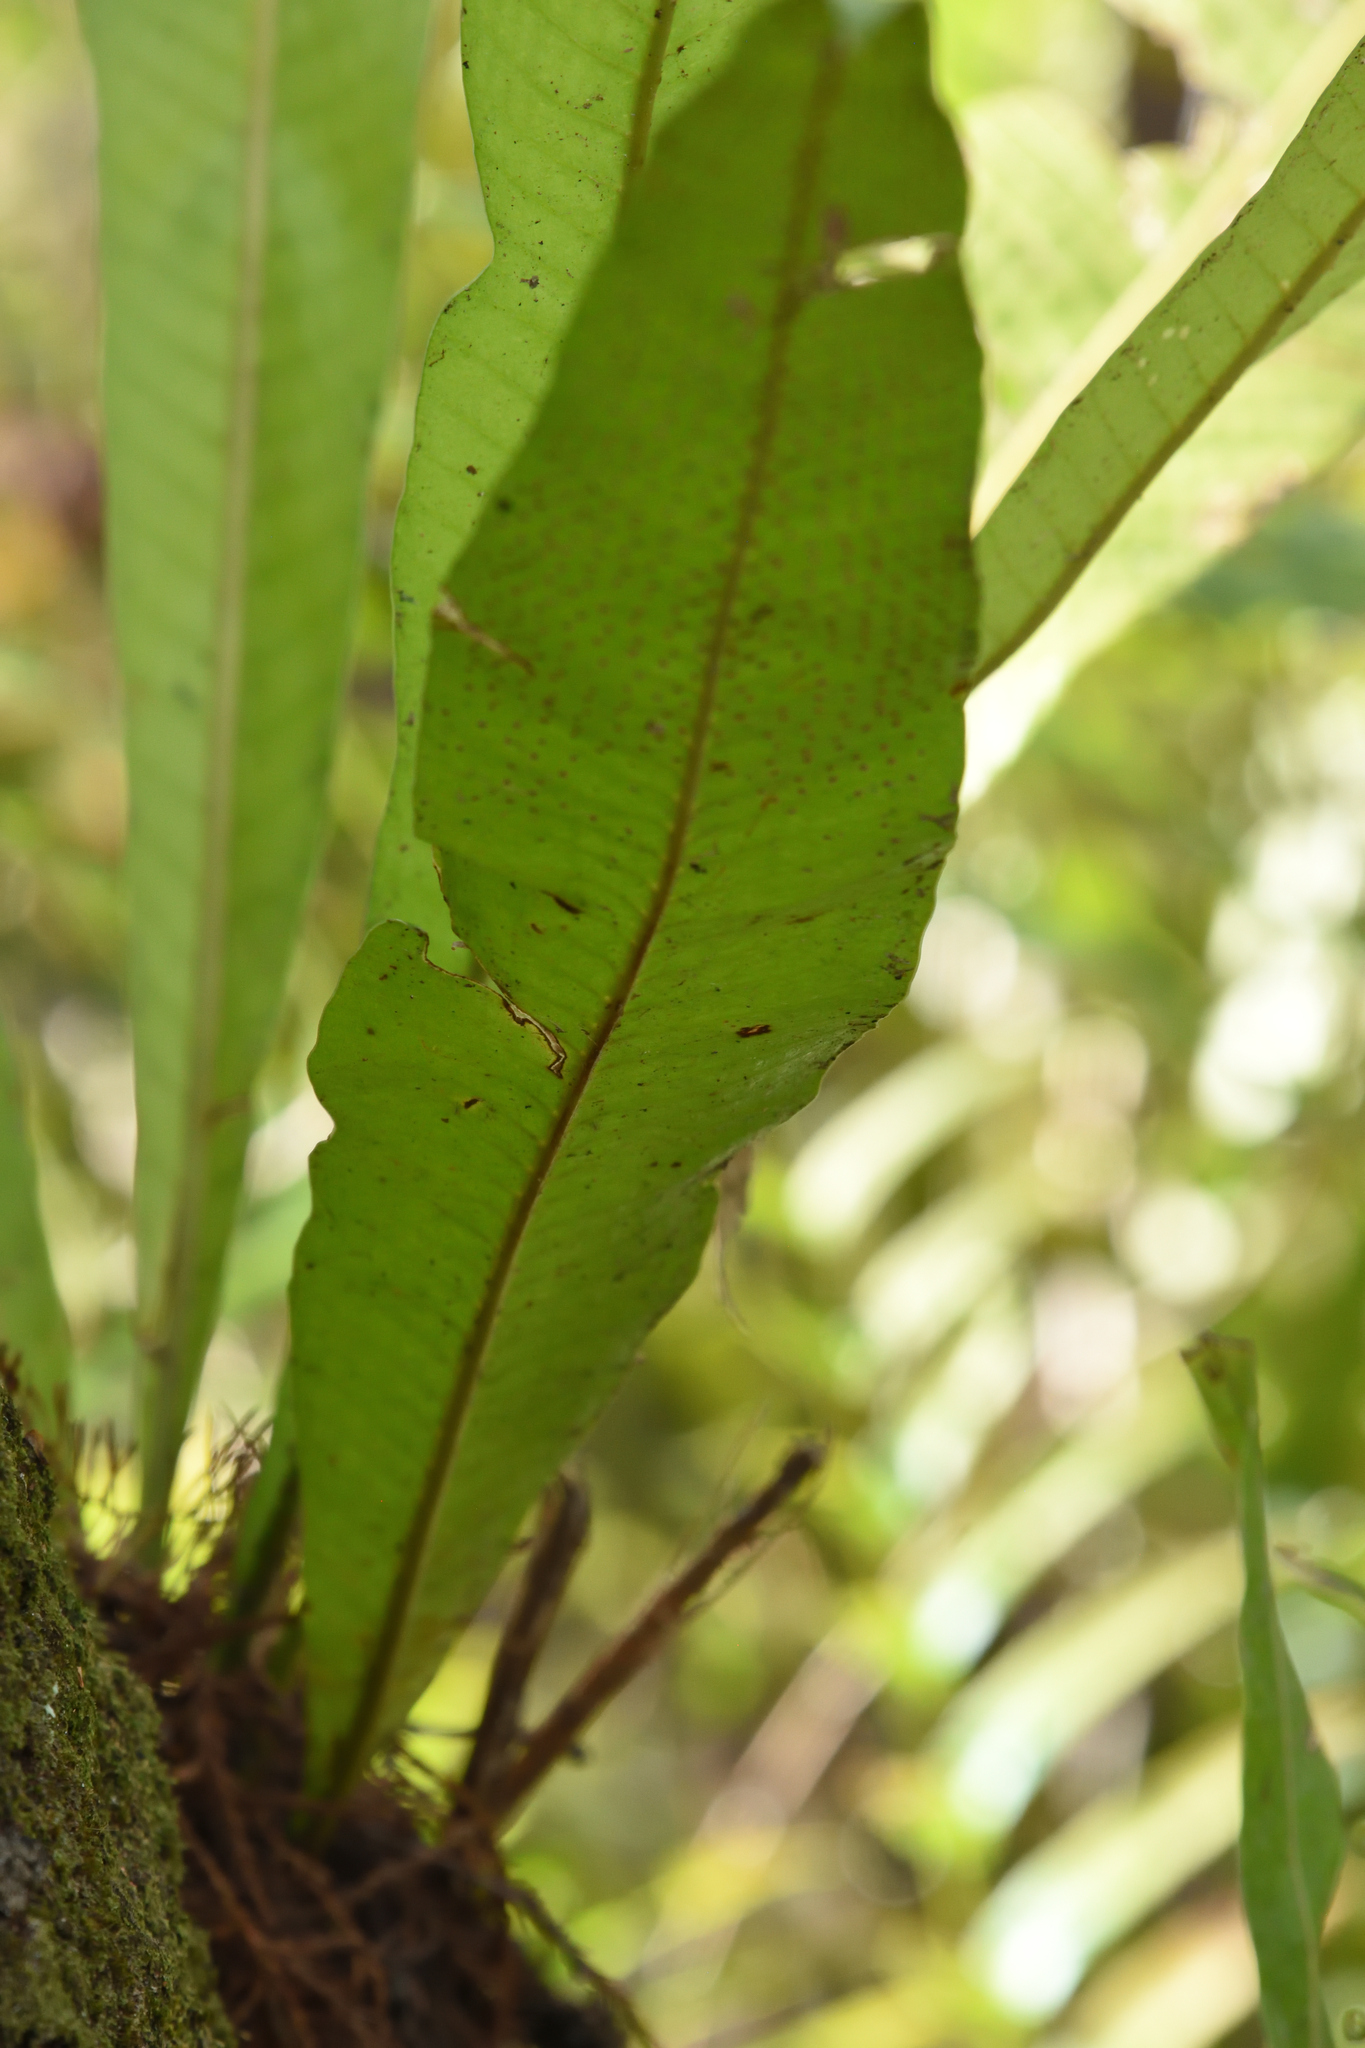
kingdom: Plantae
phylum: Tracheophyta
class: Polypodiopsida
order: Polypodiales
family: Polypodiaceae
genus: Campyloneurum
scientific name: Campyloneurum phyllitidis
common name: Cow-tongue fern
